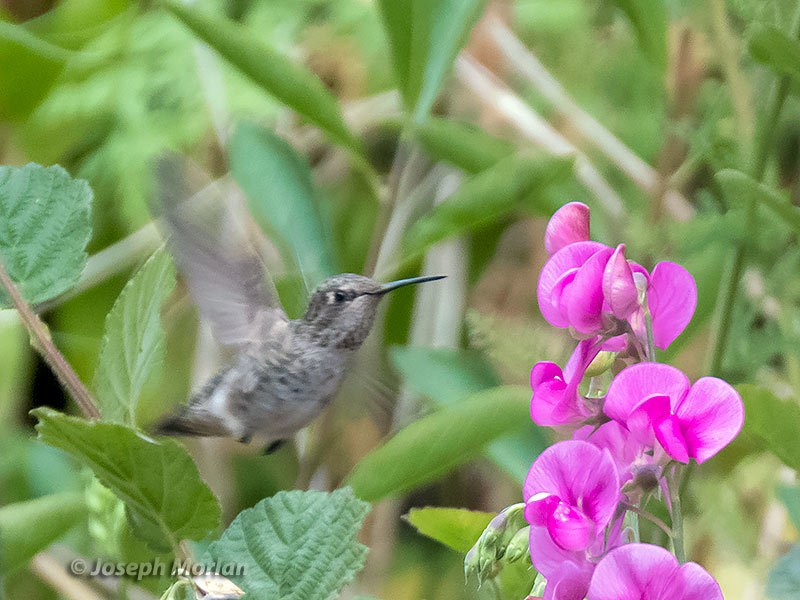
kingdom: Animalia
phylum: Chordata
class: Aves
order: Apodiformes
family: Trochilidae
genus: Calypte
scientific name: Calypte anna
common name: Anna's hummingbird
